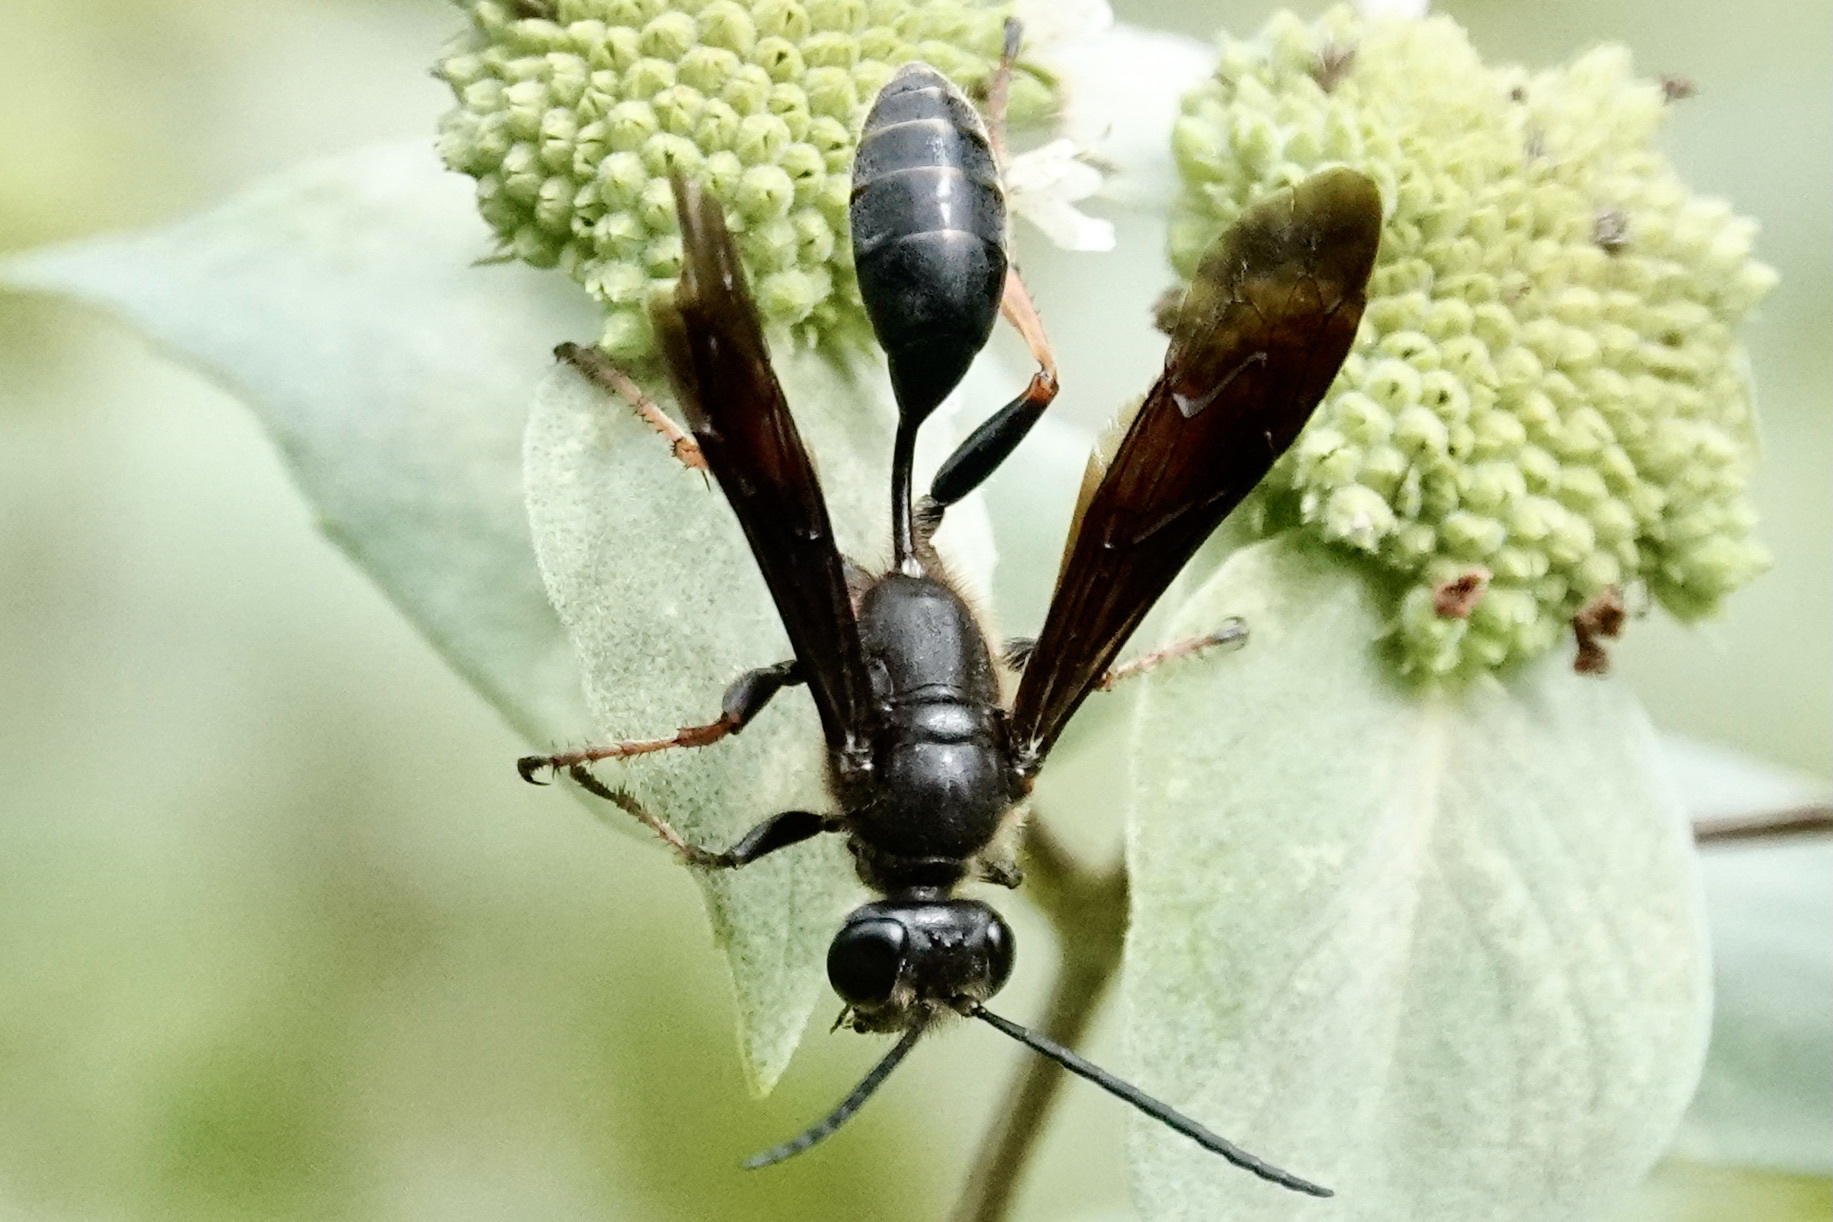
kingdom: Animalia
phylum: Arthropoda
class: Insecta
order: Hymenoptera
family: Sphecidae
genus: Isodontia
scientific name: Isodontia auripes
